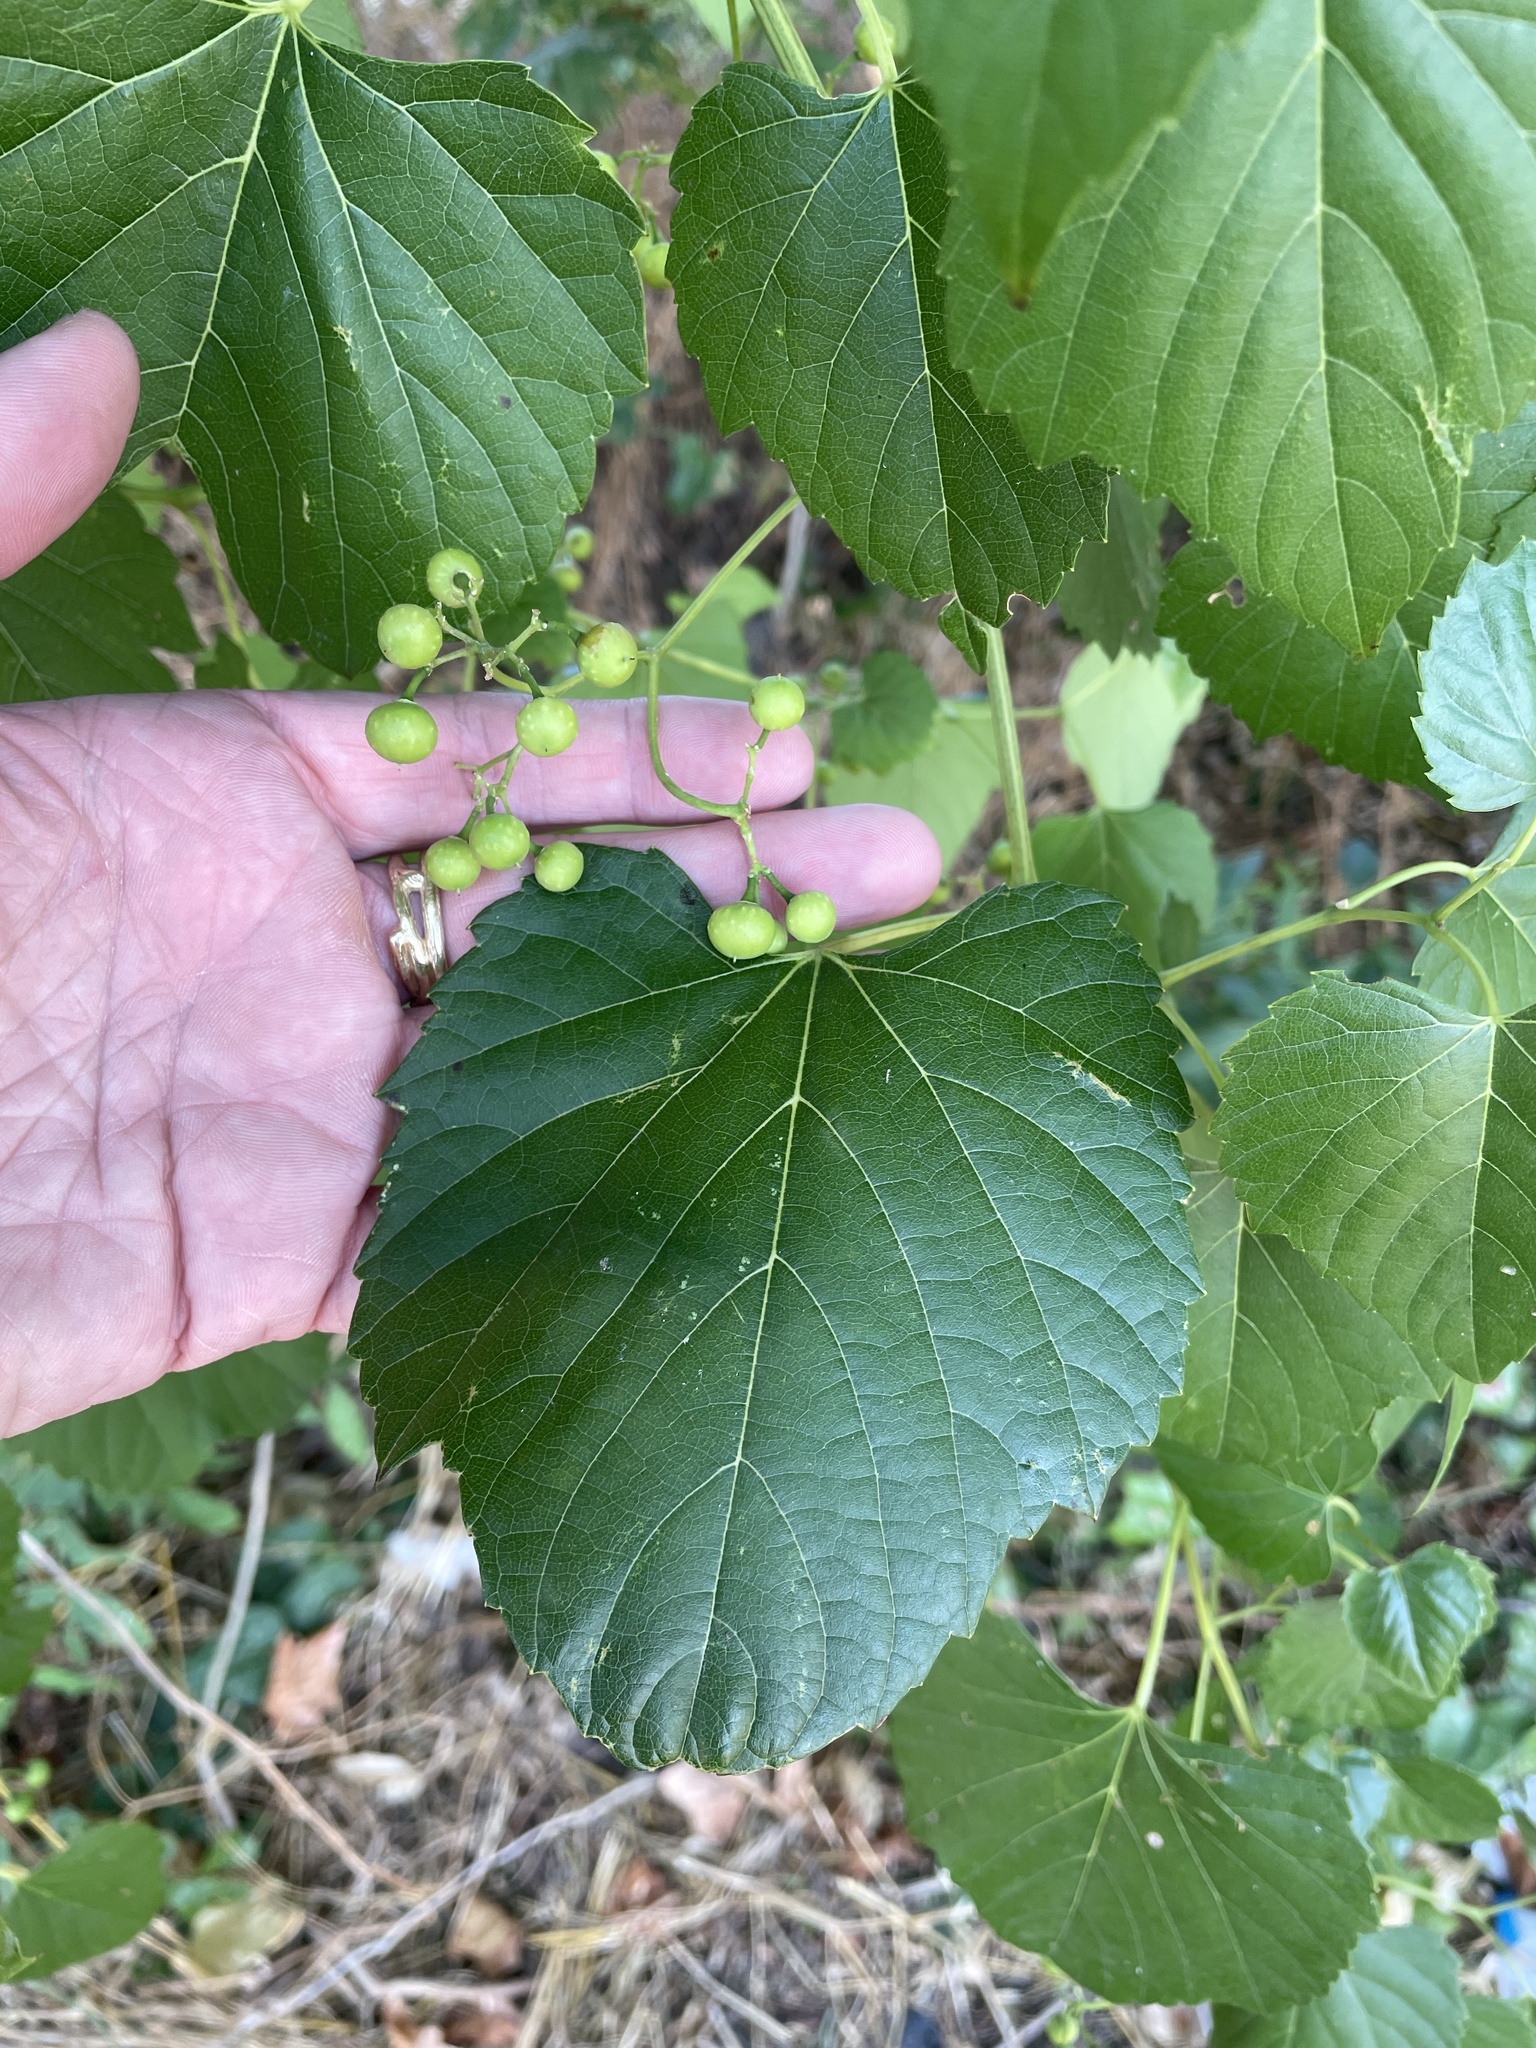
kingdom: Plantae
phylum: Tracheophyta
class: Magnoliopsida
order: Vitales
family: Vitaceae
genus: Ampelopsis
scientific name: Ampelopsis cordata
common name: Heart-leaf ampelopsis
